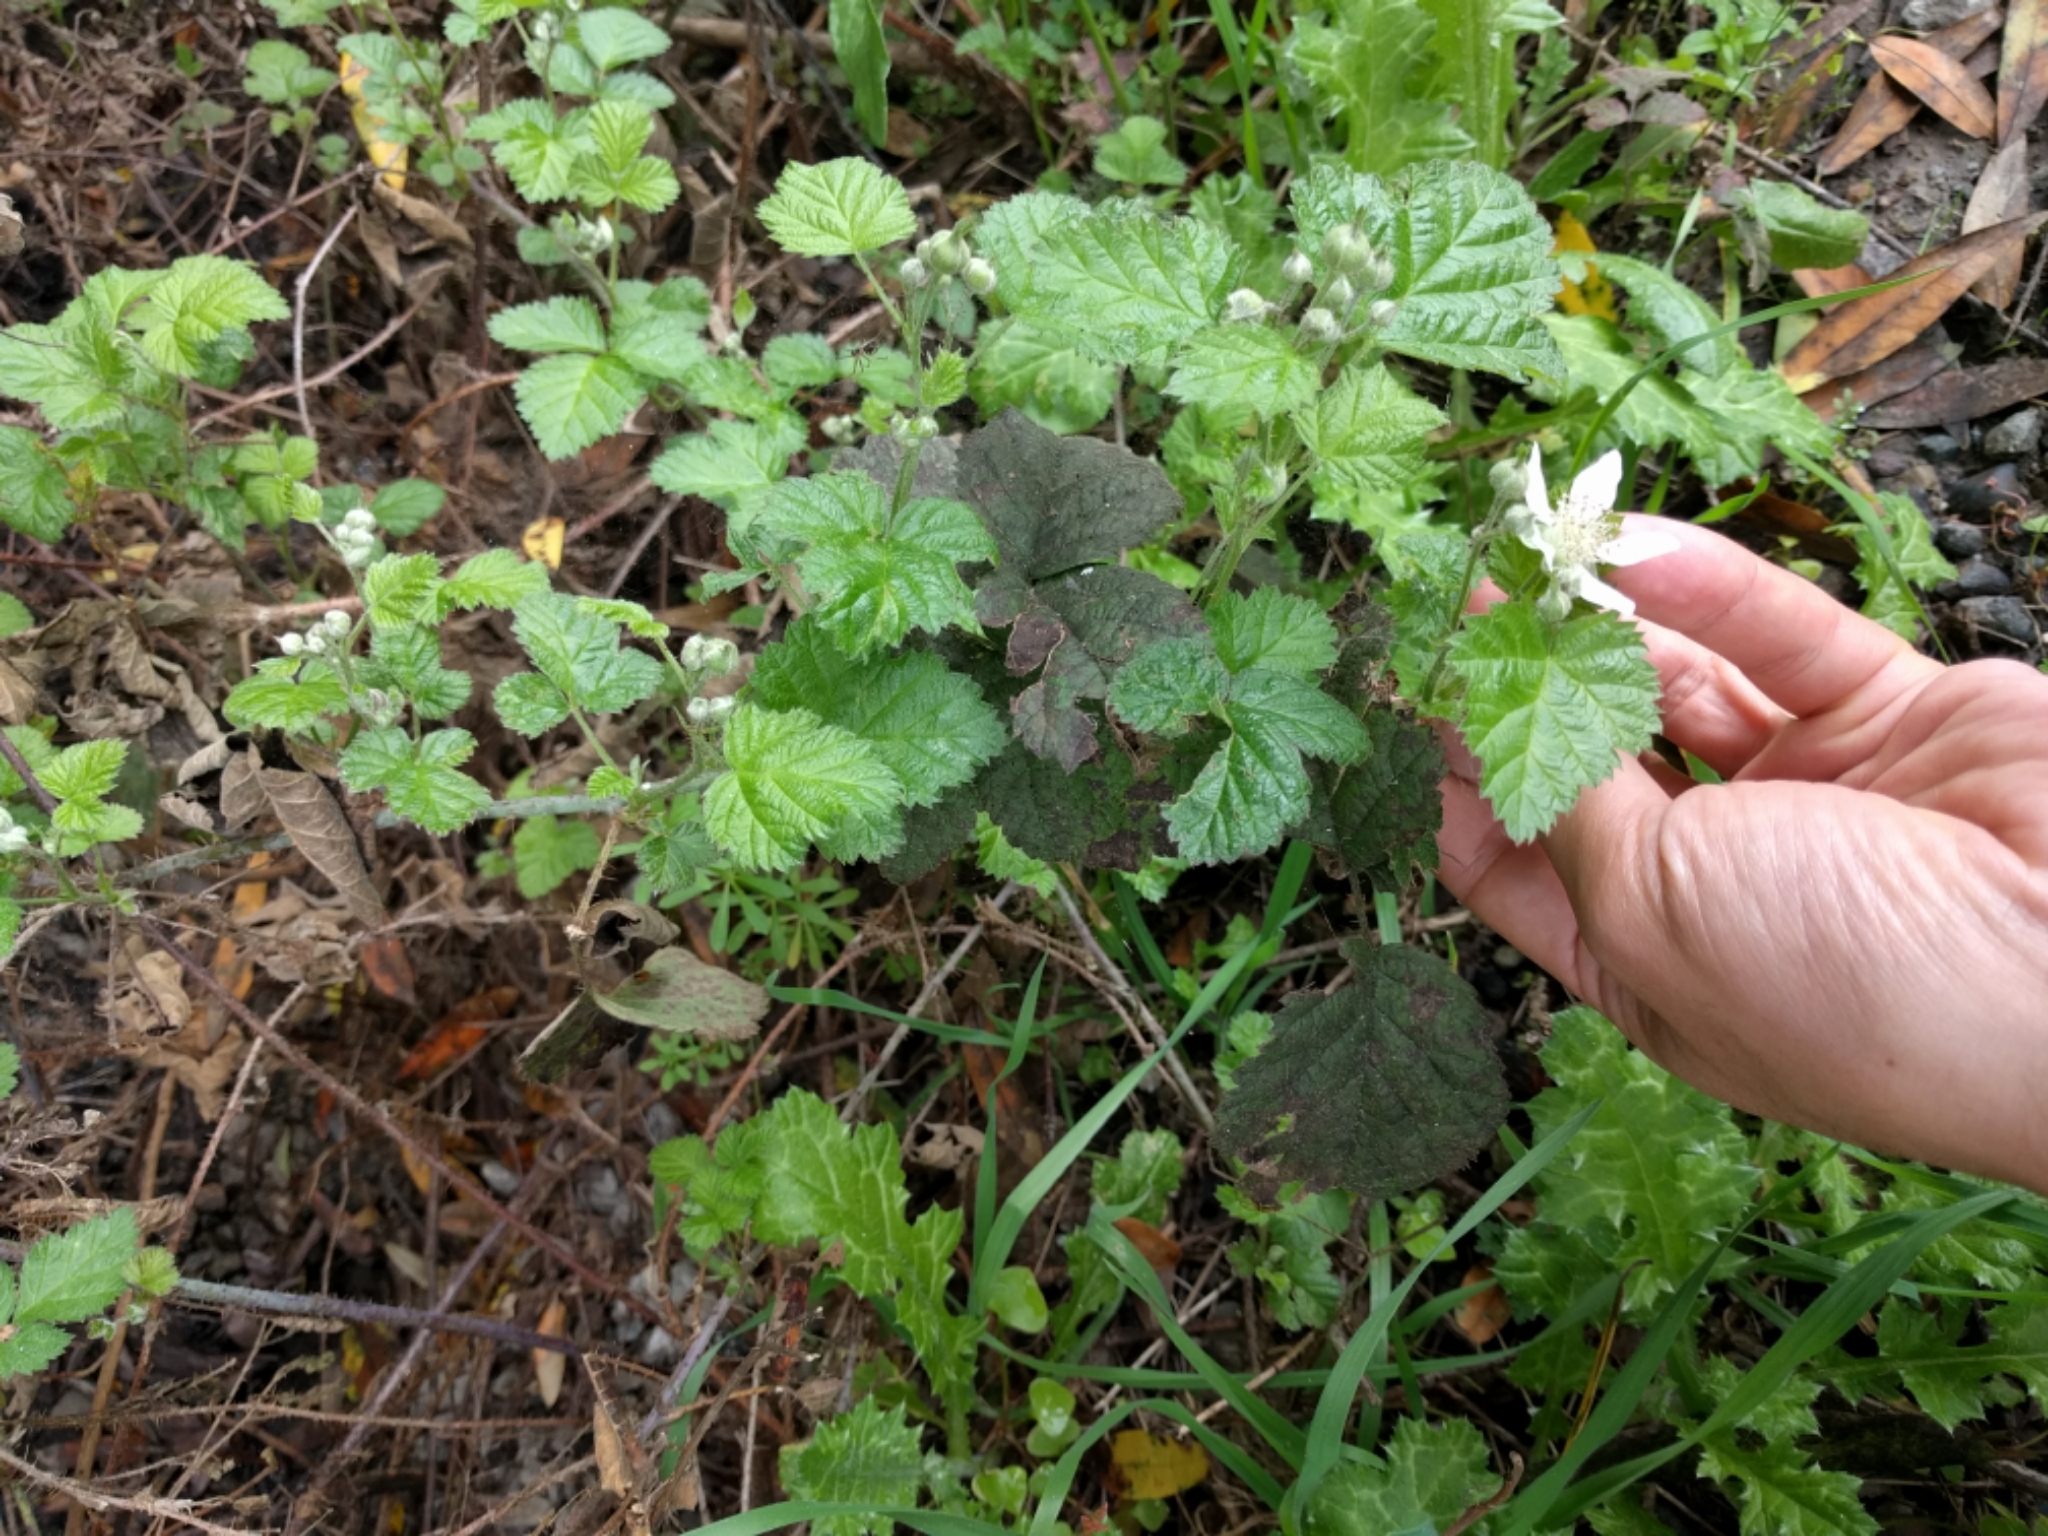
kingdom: Plantae
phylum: Tracheophyta
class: Magnoliopsida
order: Rosales
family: Rosaceae
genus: Rubus
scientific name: Rubus ursinus
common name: Pacific blackberry
